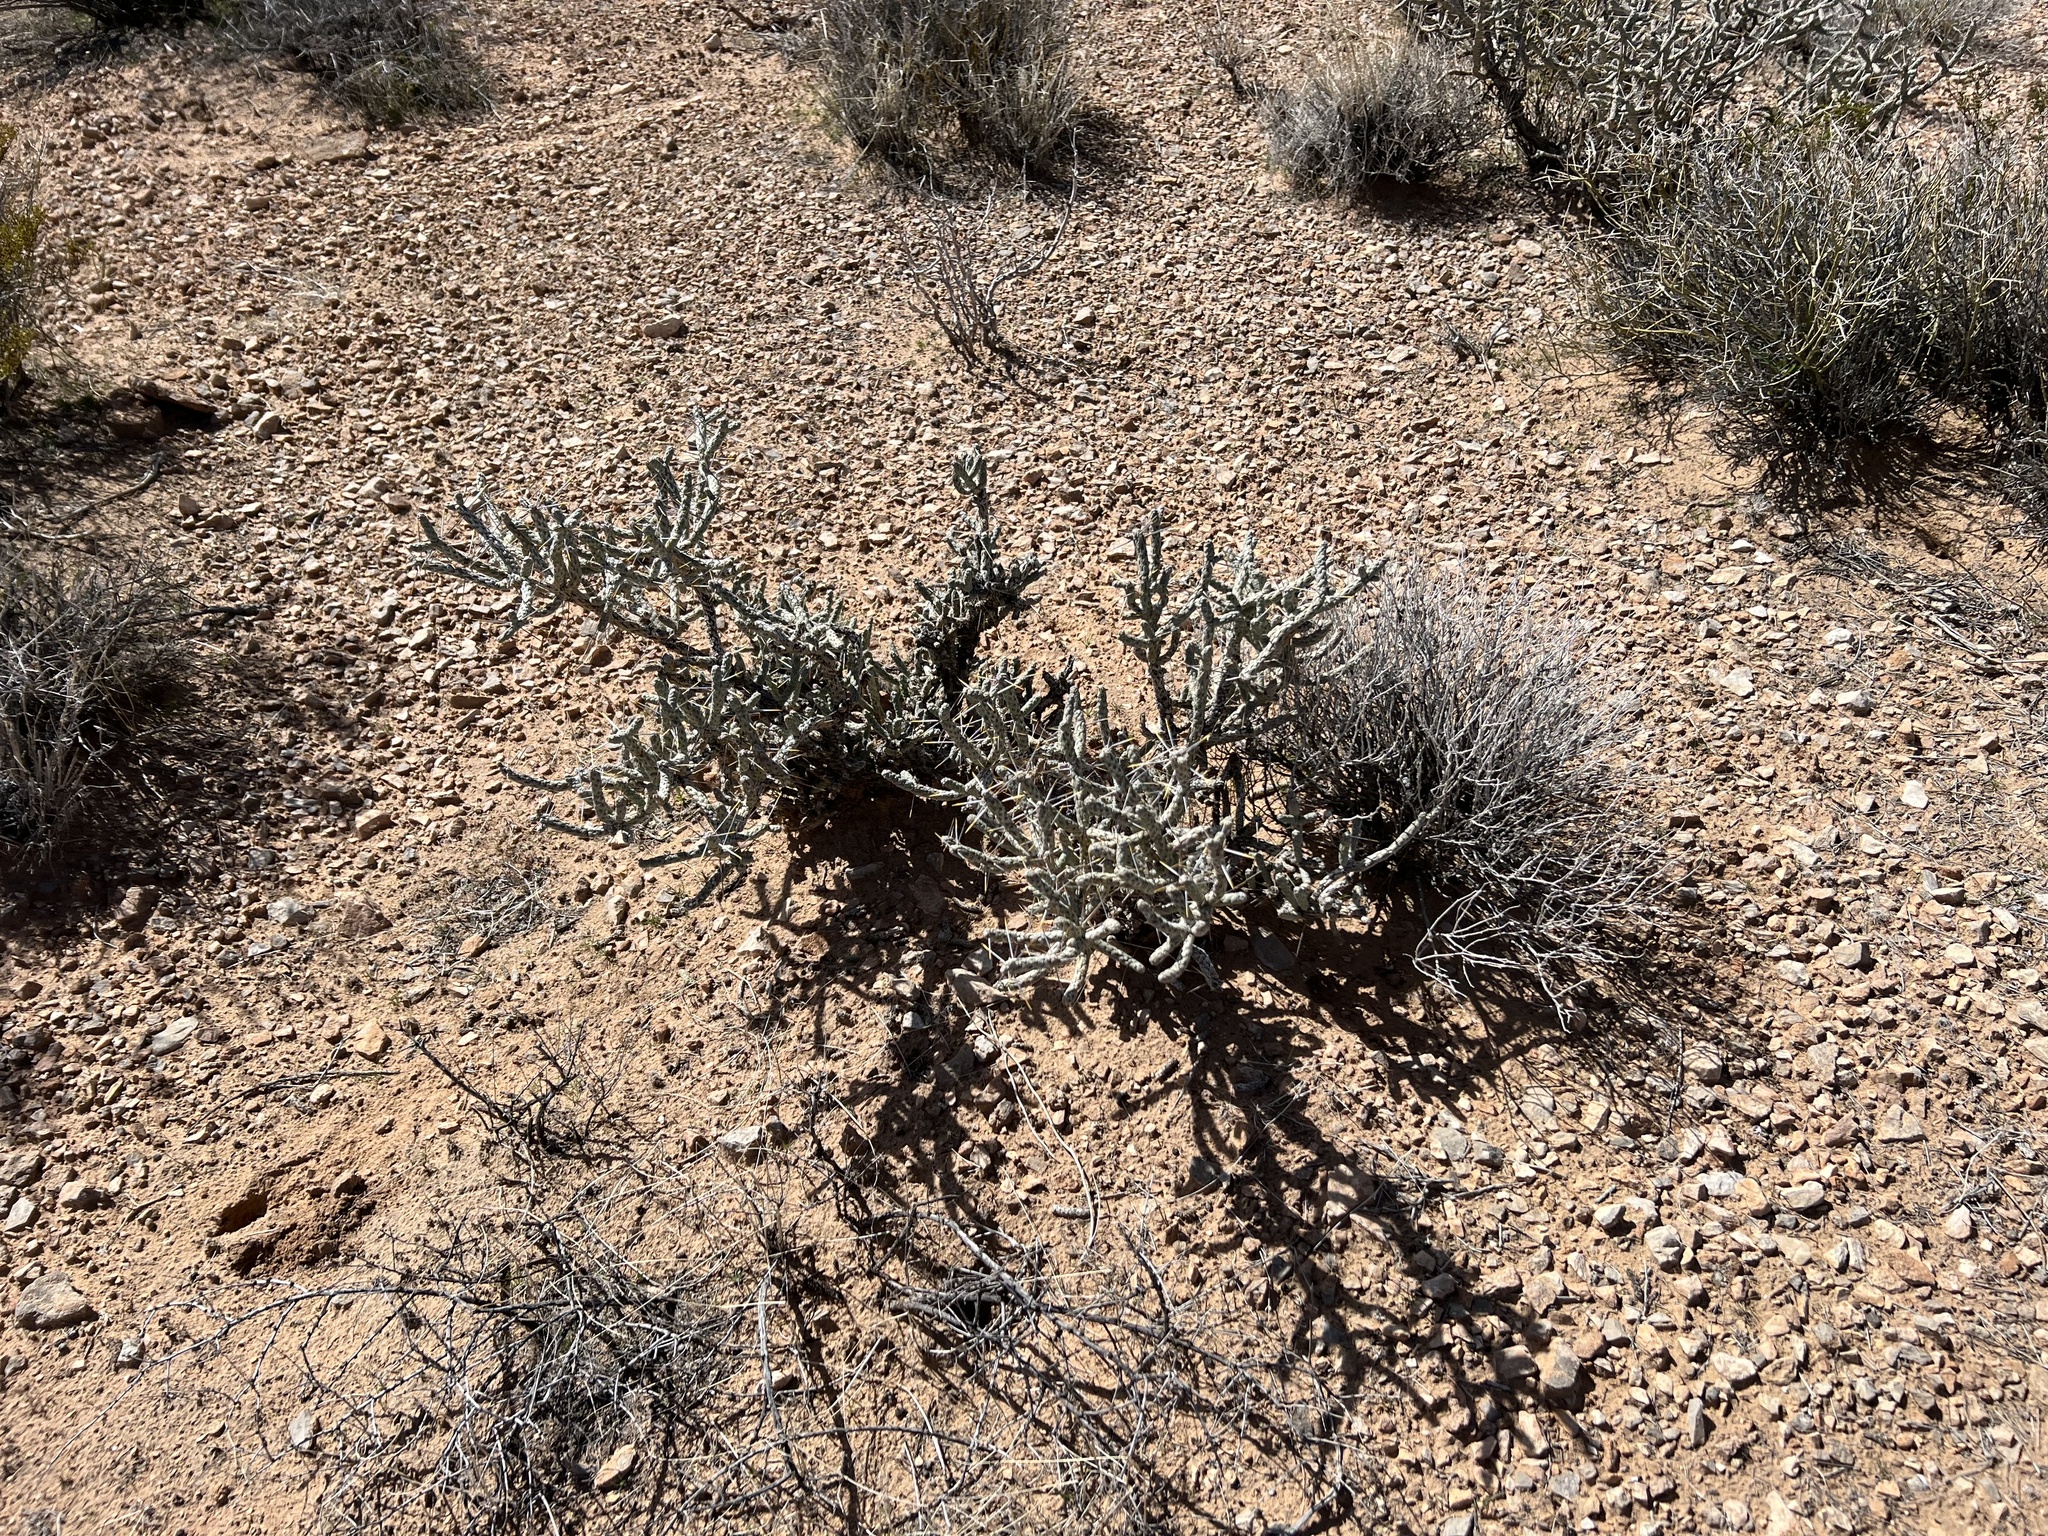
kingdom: Plantae
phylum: Tracheophyta
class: Magnoliopsida
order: Caryophyllales
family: Cactaceae
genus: Cylindropuntia
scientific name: Cylindropuntia ramosissima
